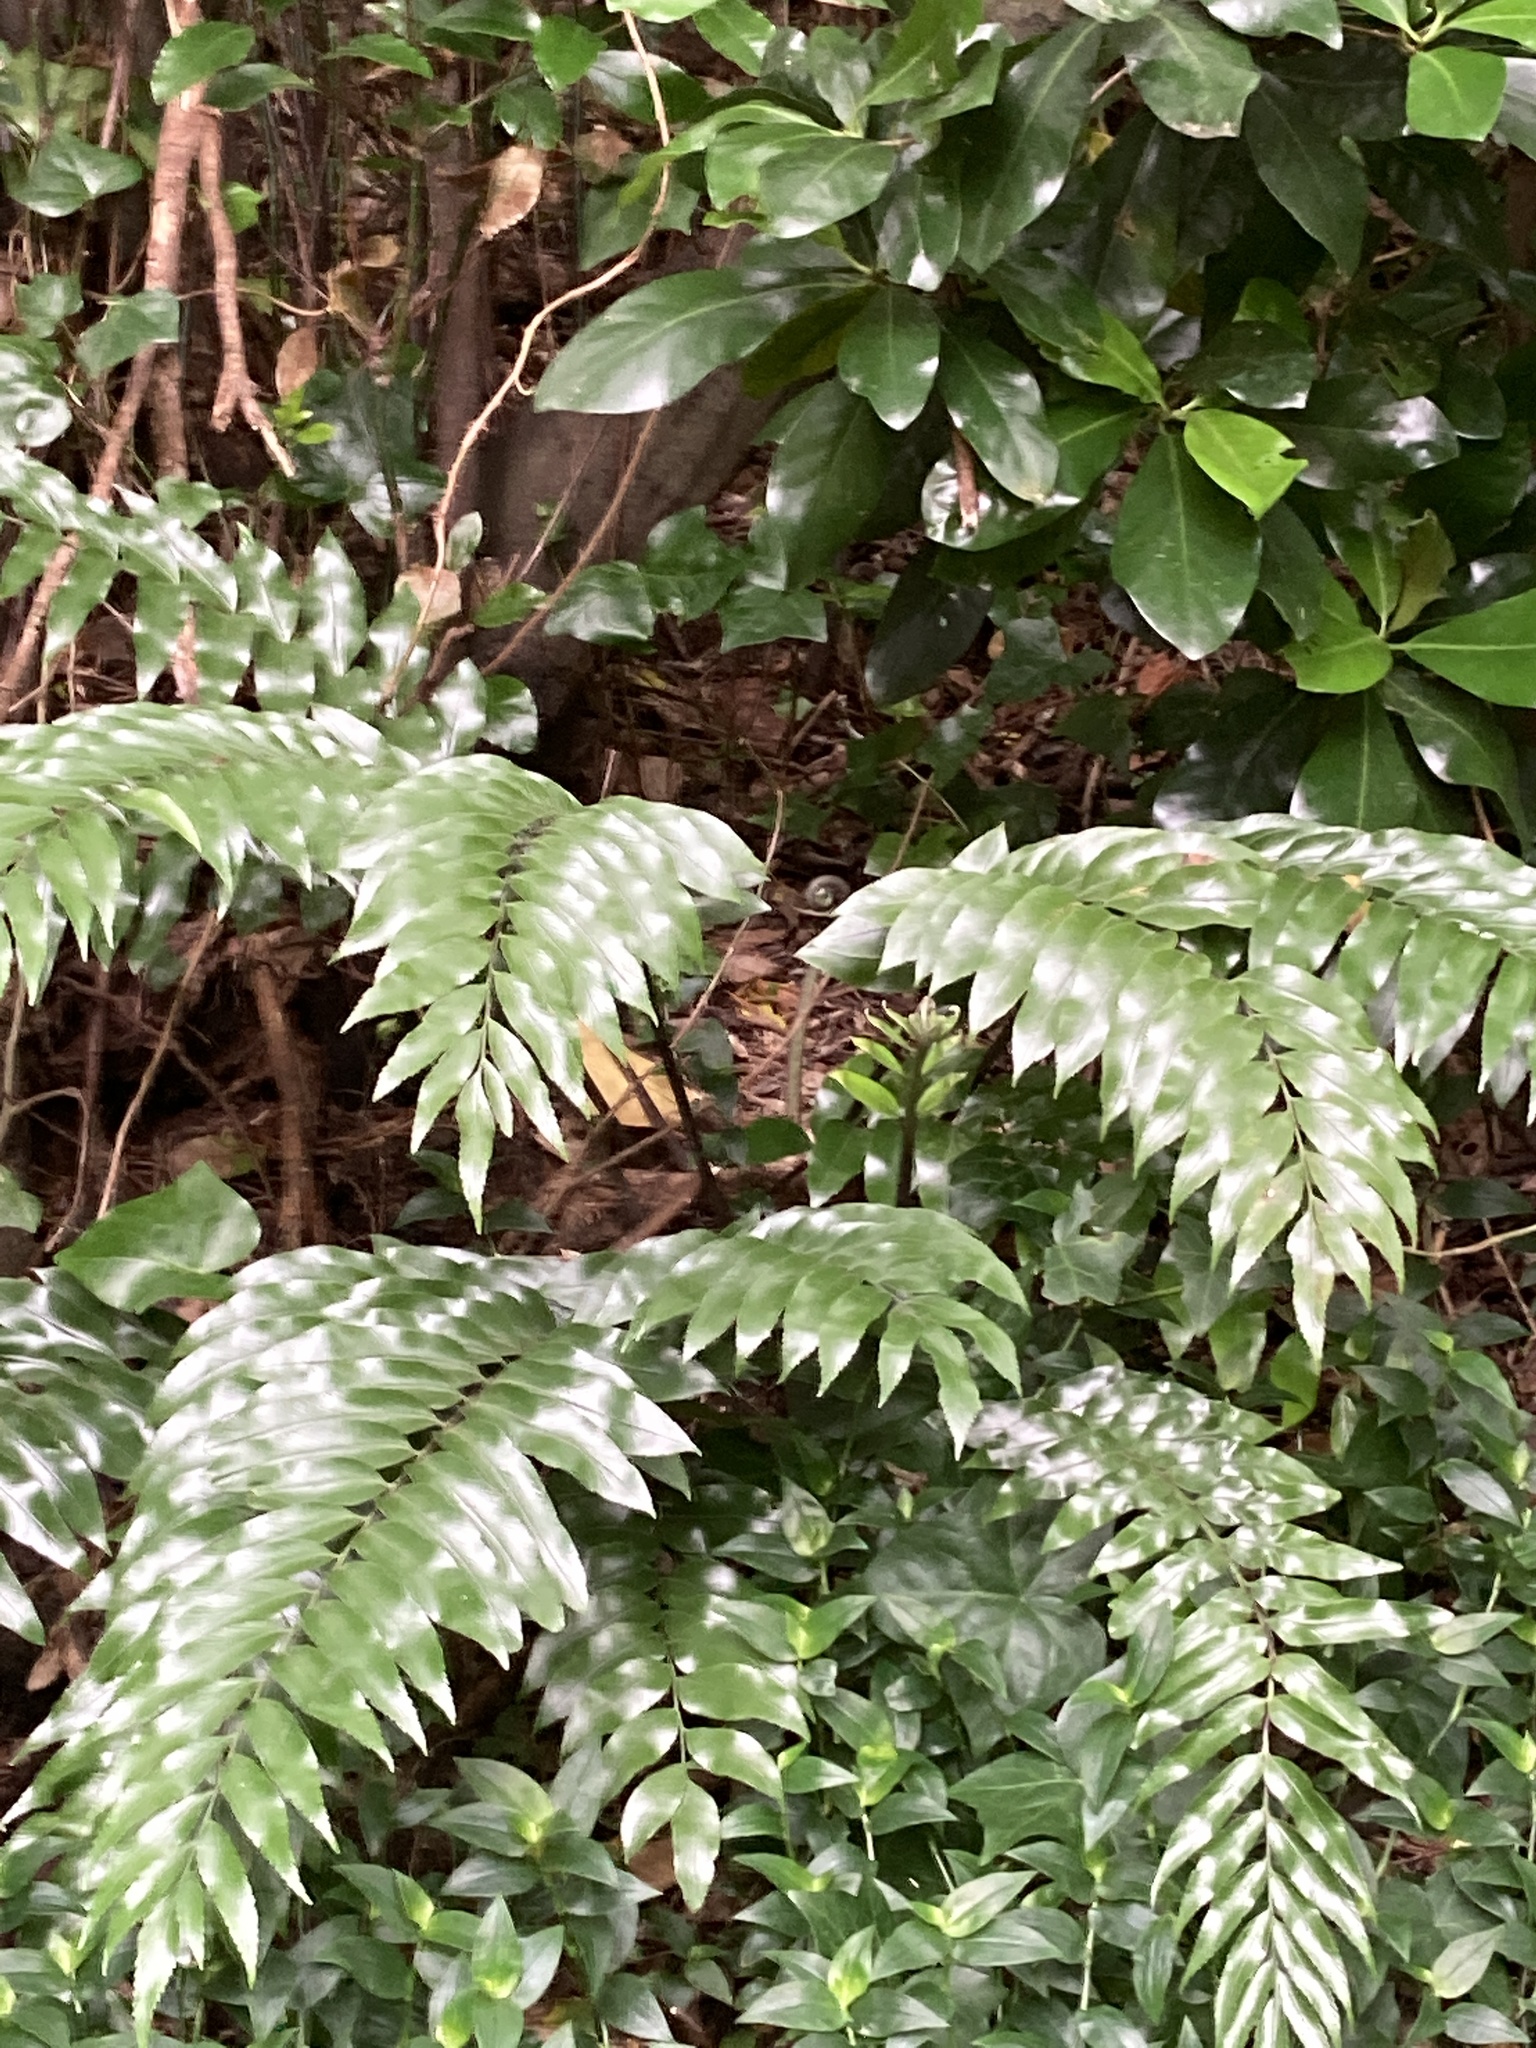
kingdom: Plantae
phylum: Tracheophyta
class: Polypodiopsida
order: Polypodiales
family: Aspleniaceae
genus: Asplenium
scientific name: Asplenium oblongifolium
